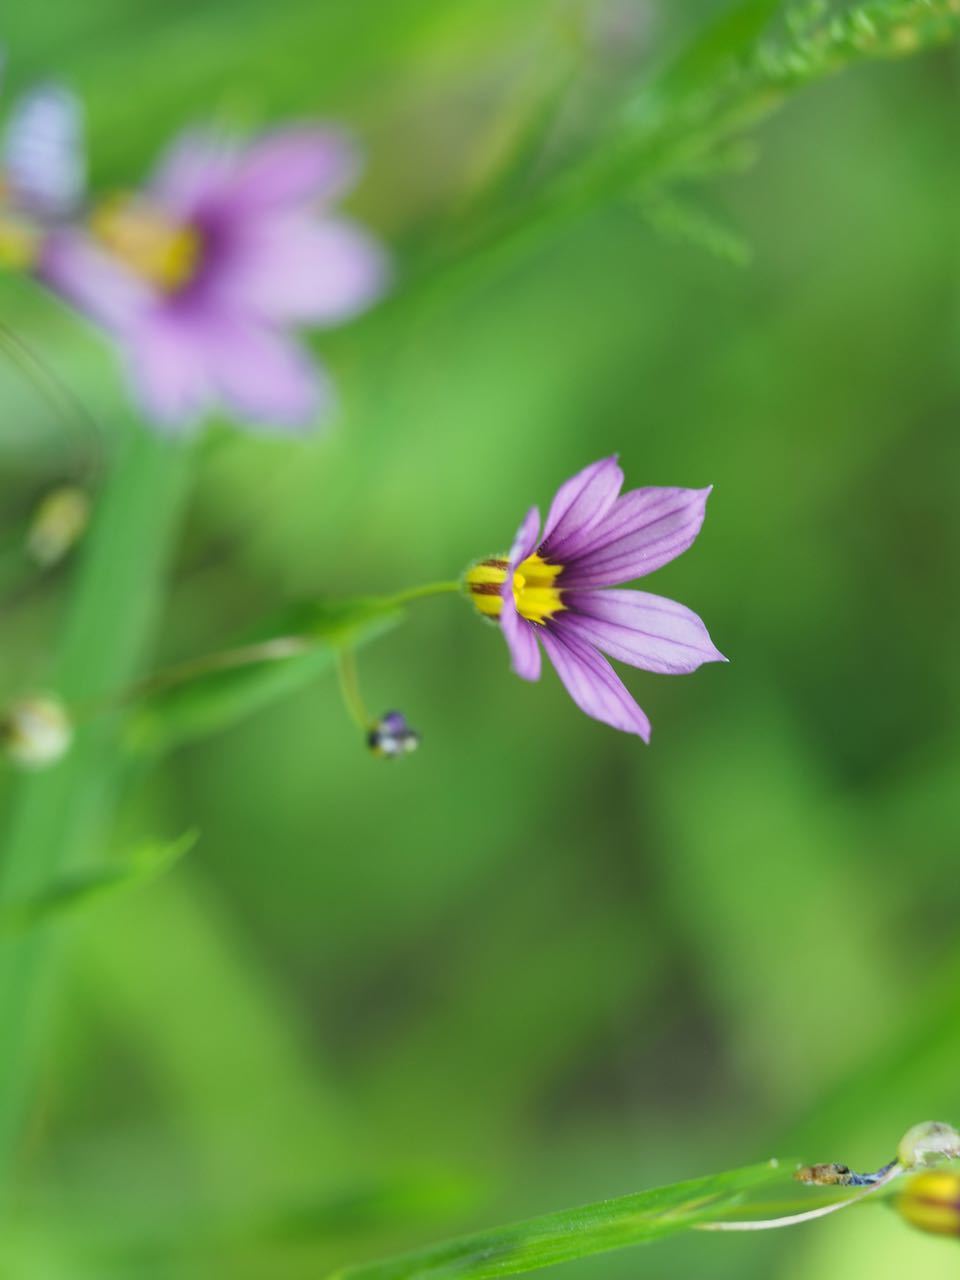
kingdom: Plantae
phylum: Tracheophyta
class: Liliopsida
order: Asparagales
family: Iridaceae
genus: Sisyrinchium
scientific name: Sisyrinchium micranthum
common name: Bermuda pigroot
